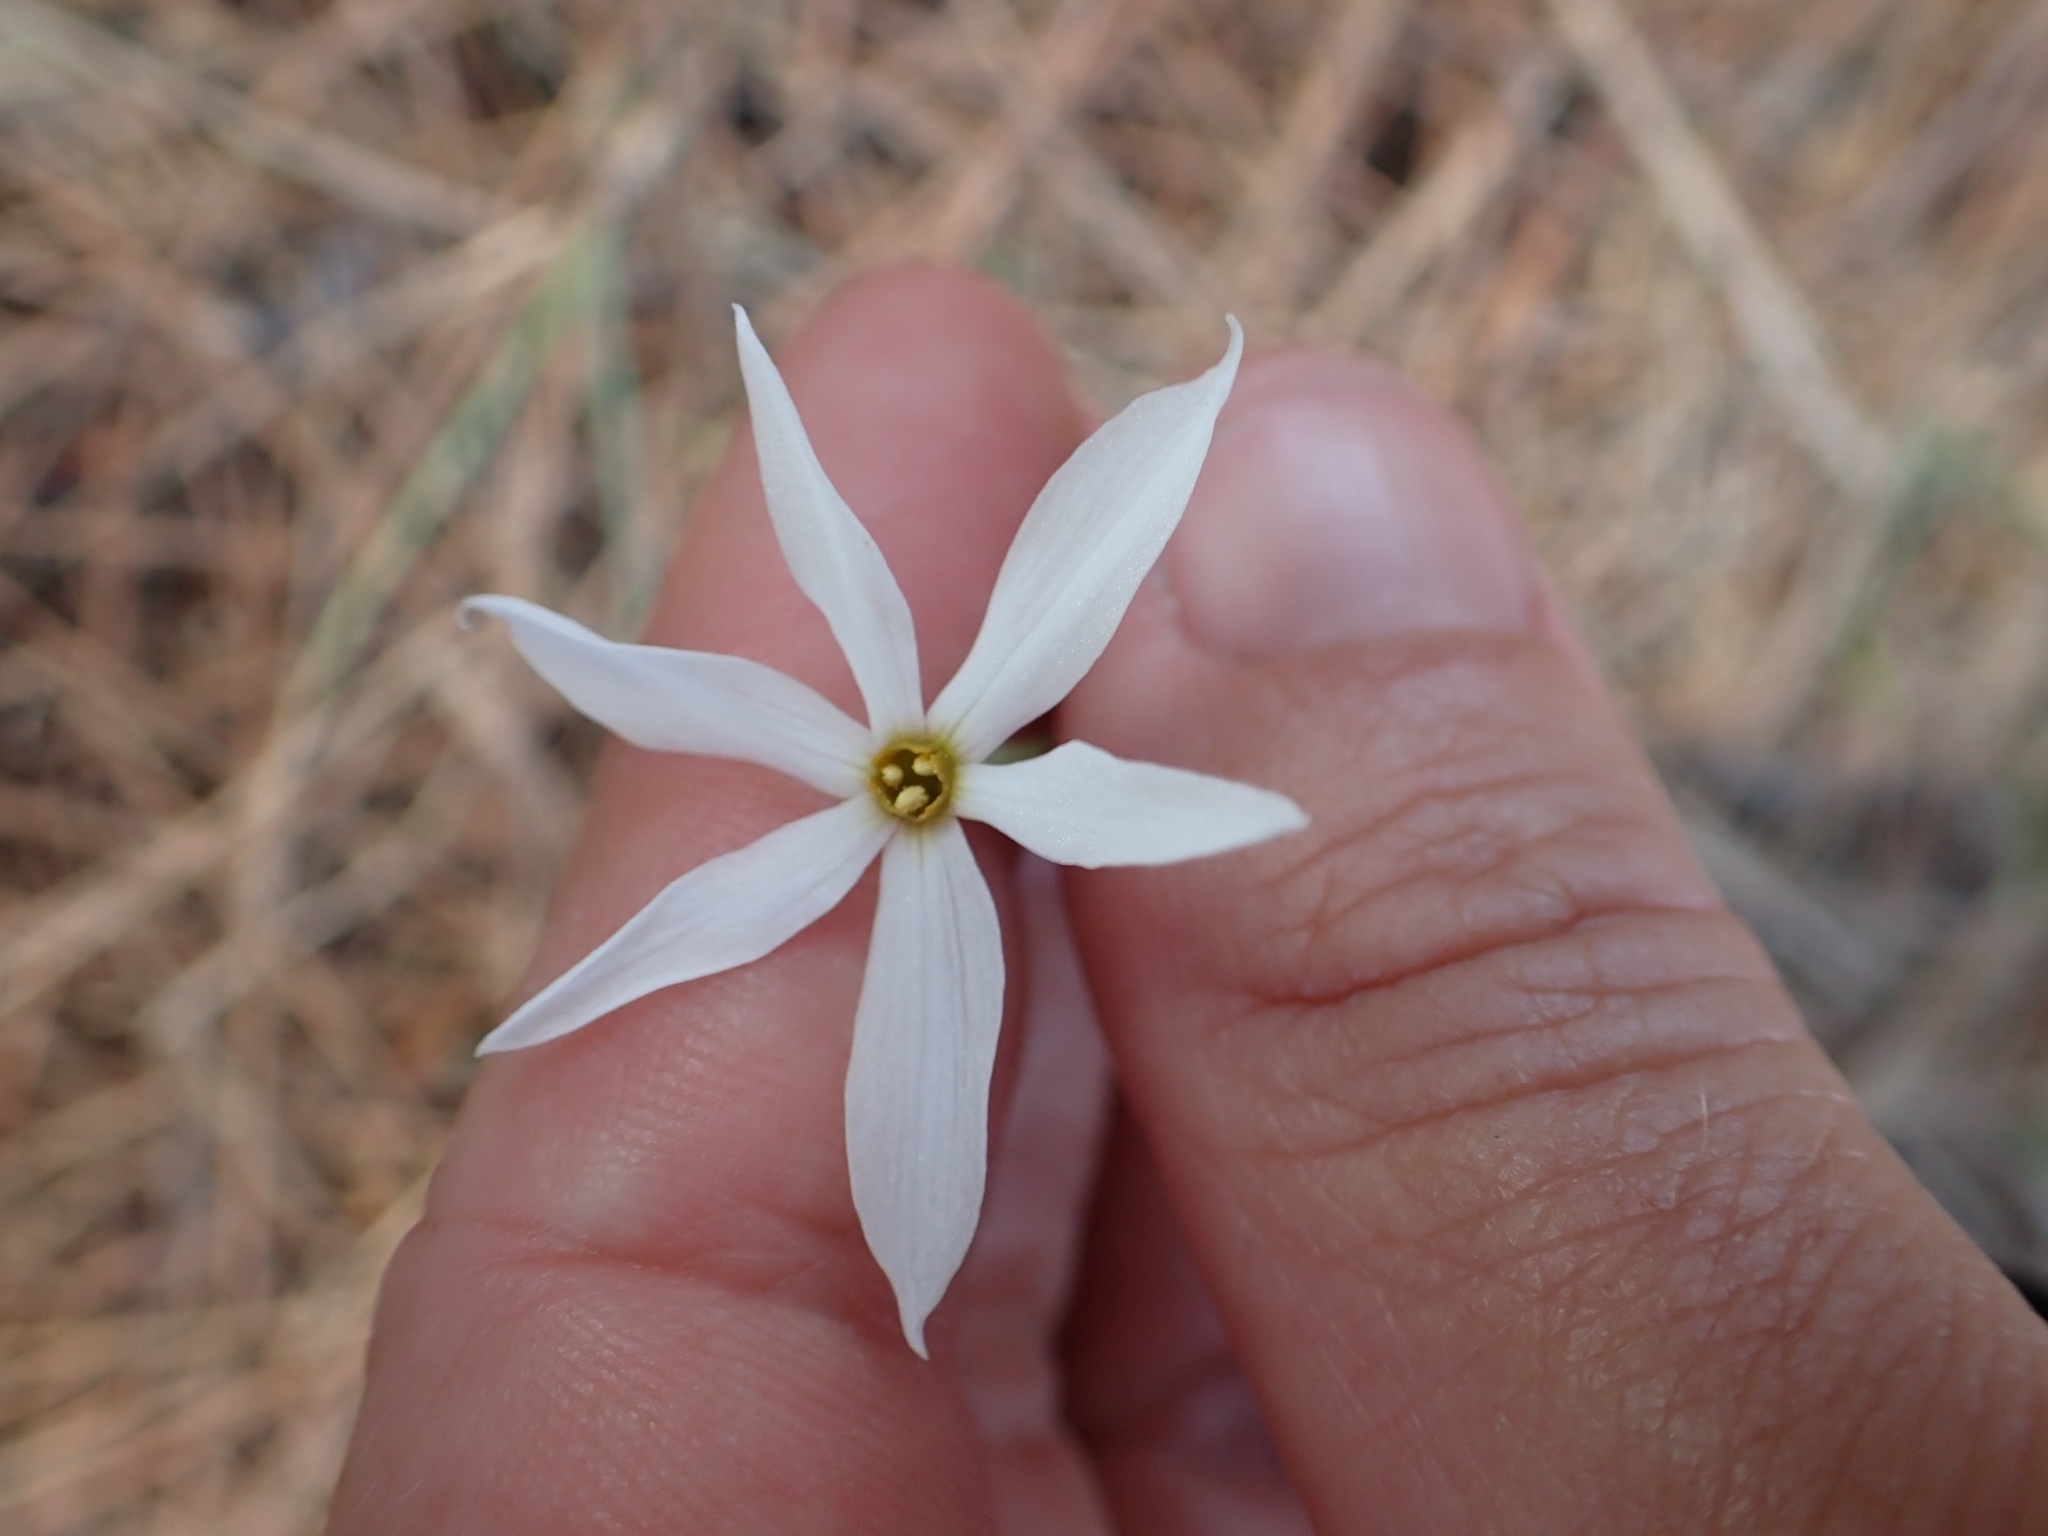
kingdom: Plantae
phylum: Tracheophyta
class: Liliopsida
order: Asparagales
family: Amaryllidaceae
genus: Narcissus
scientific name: Narcissus deficiens
